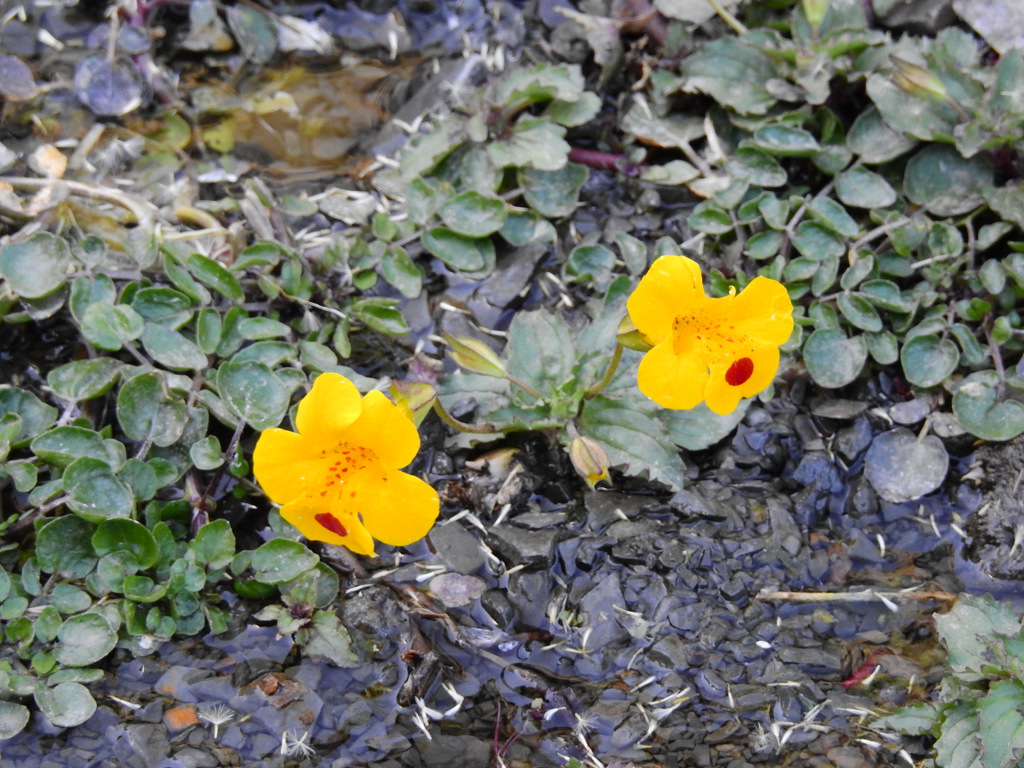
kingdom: Plantae
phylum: Tracheophyta
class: Magnoliopsida
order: Lamiales
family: Phrymaceae
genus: Erythranthe
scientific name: Erythranthe lutea
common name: Yellow monkey-flower
